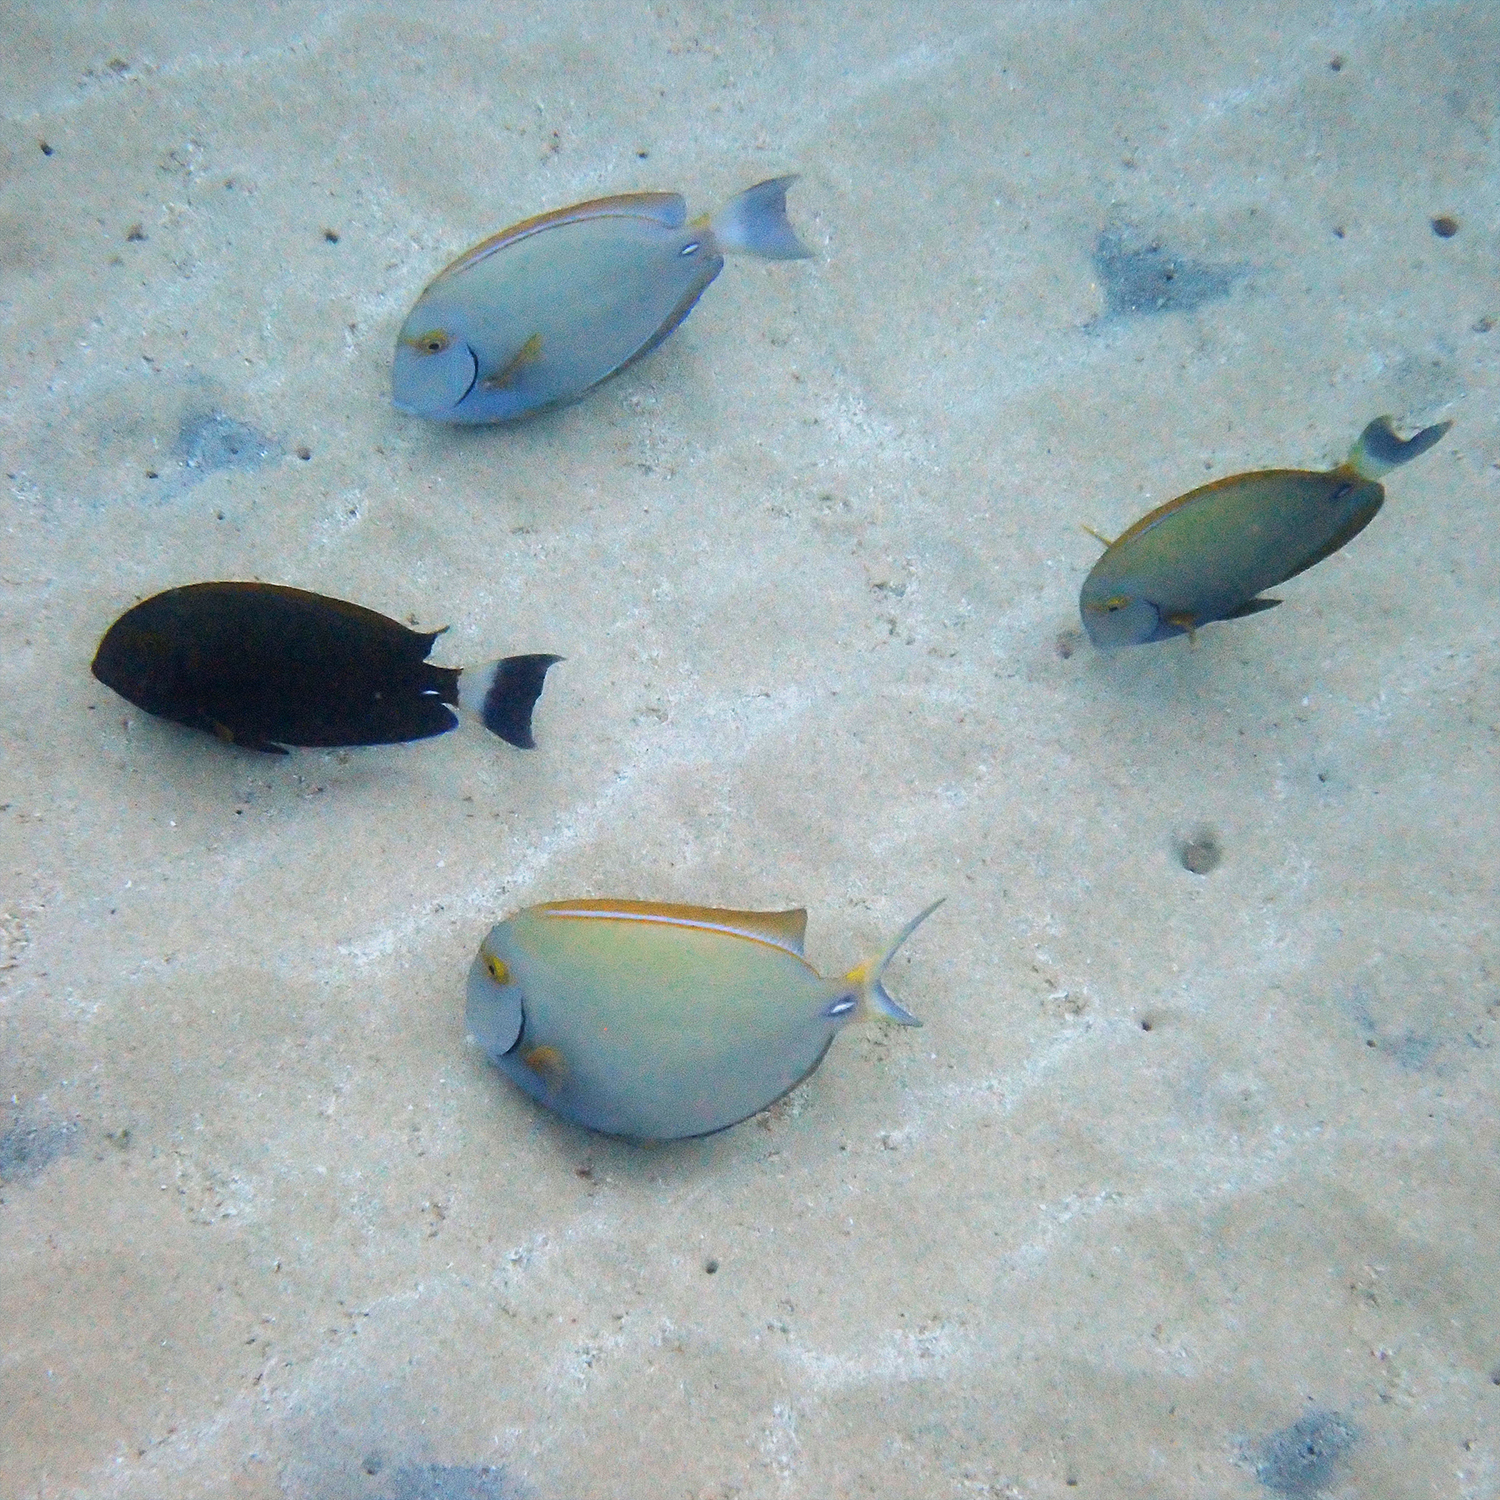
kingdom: Animalia
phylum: Chordata
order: Perciformes
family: Acanthuridae
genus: Acanthurus
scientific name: Acanthurus dussumieri
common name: Dussumier's surgeonfish
